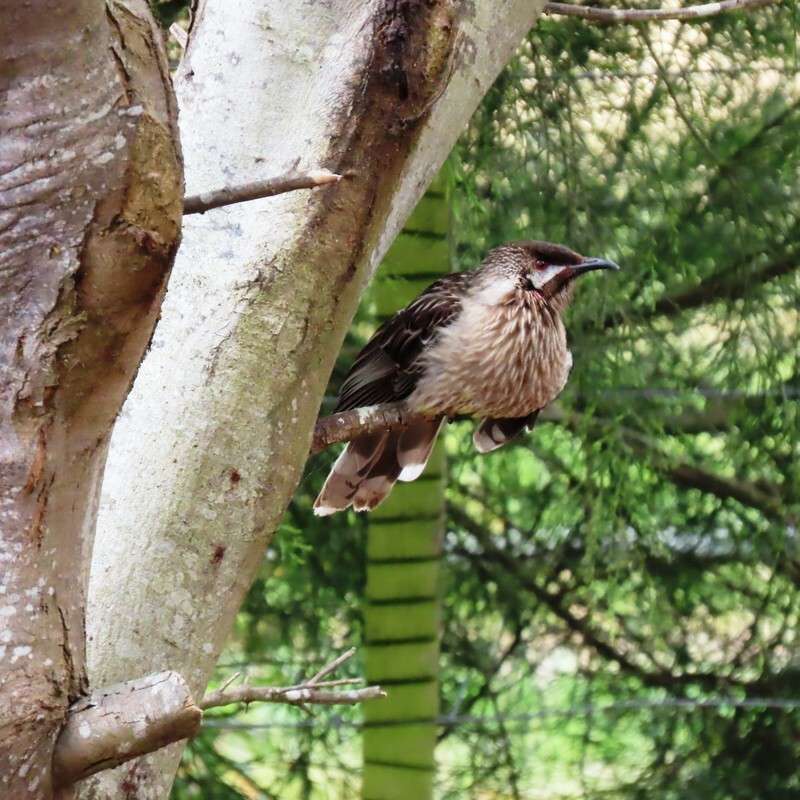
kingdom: Animalia
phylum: Chordata
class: Aves
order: Passeriformes
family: Meliphagidae
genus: Anthochaera
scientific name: Anthochaera carunculata
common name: Red wattlebird
